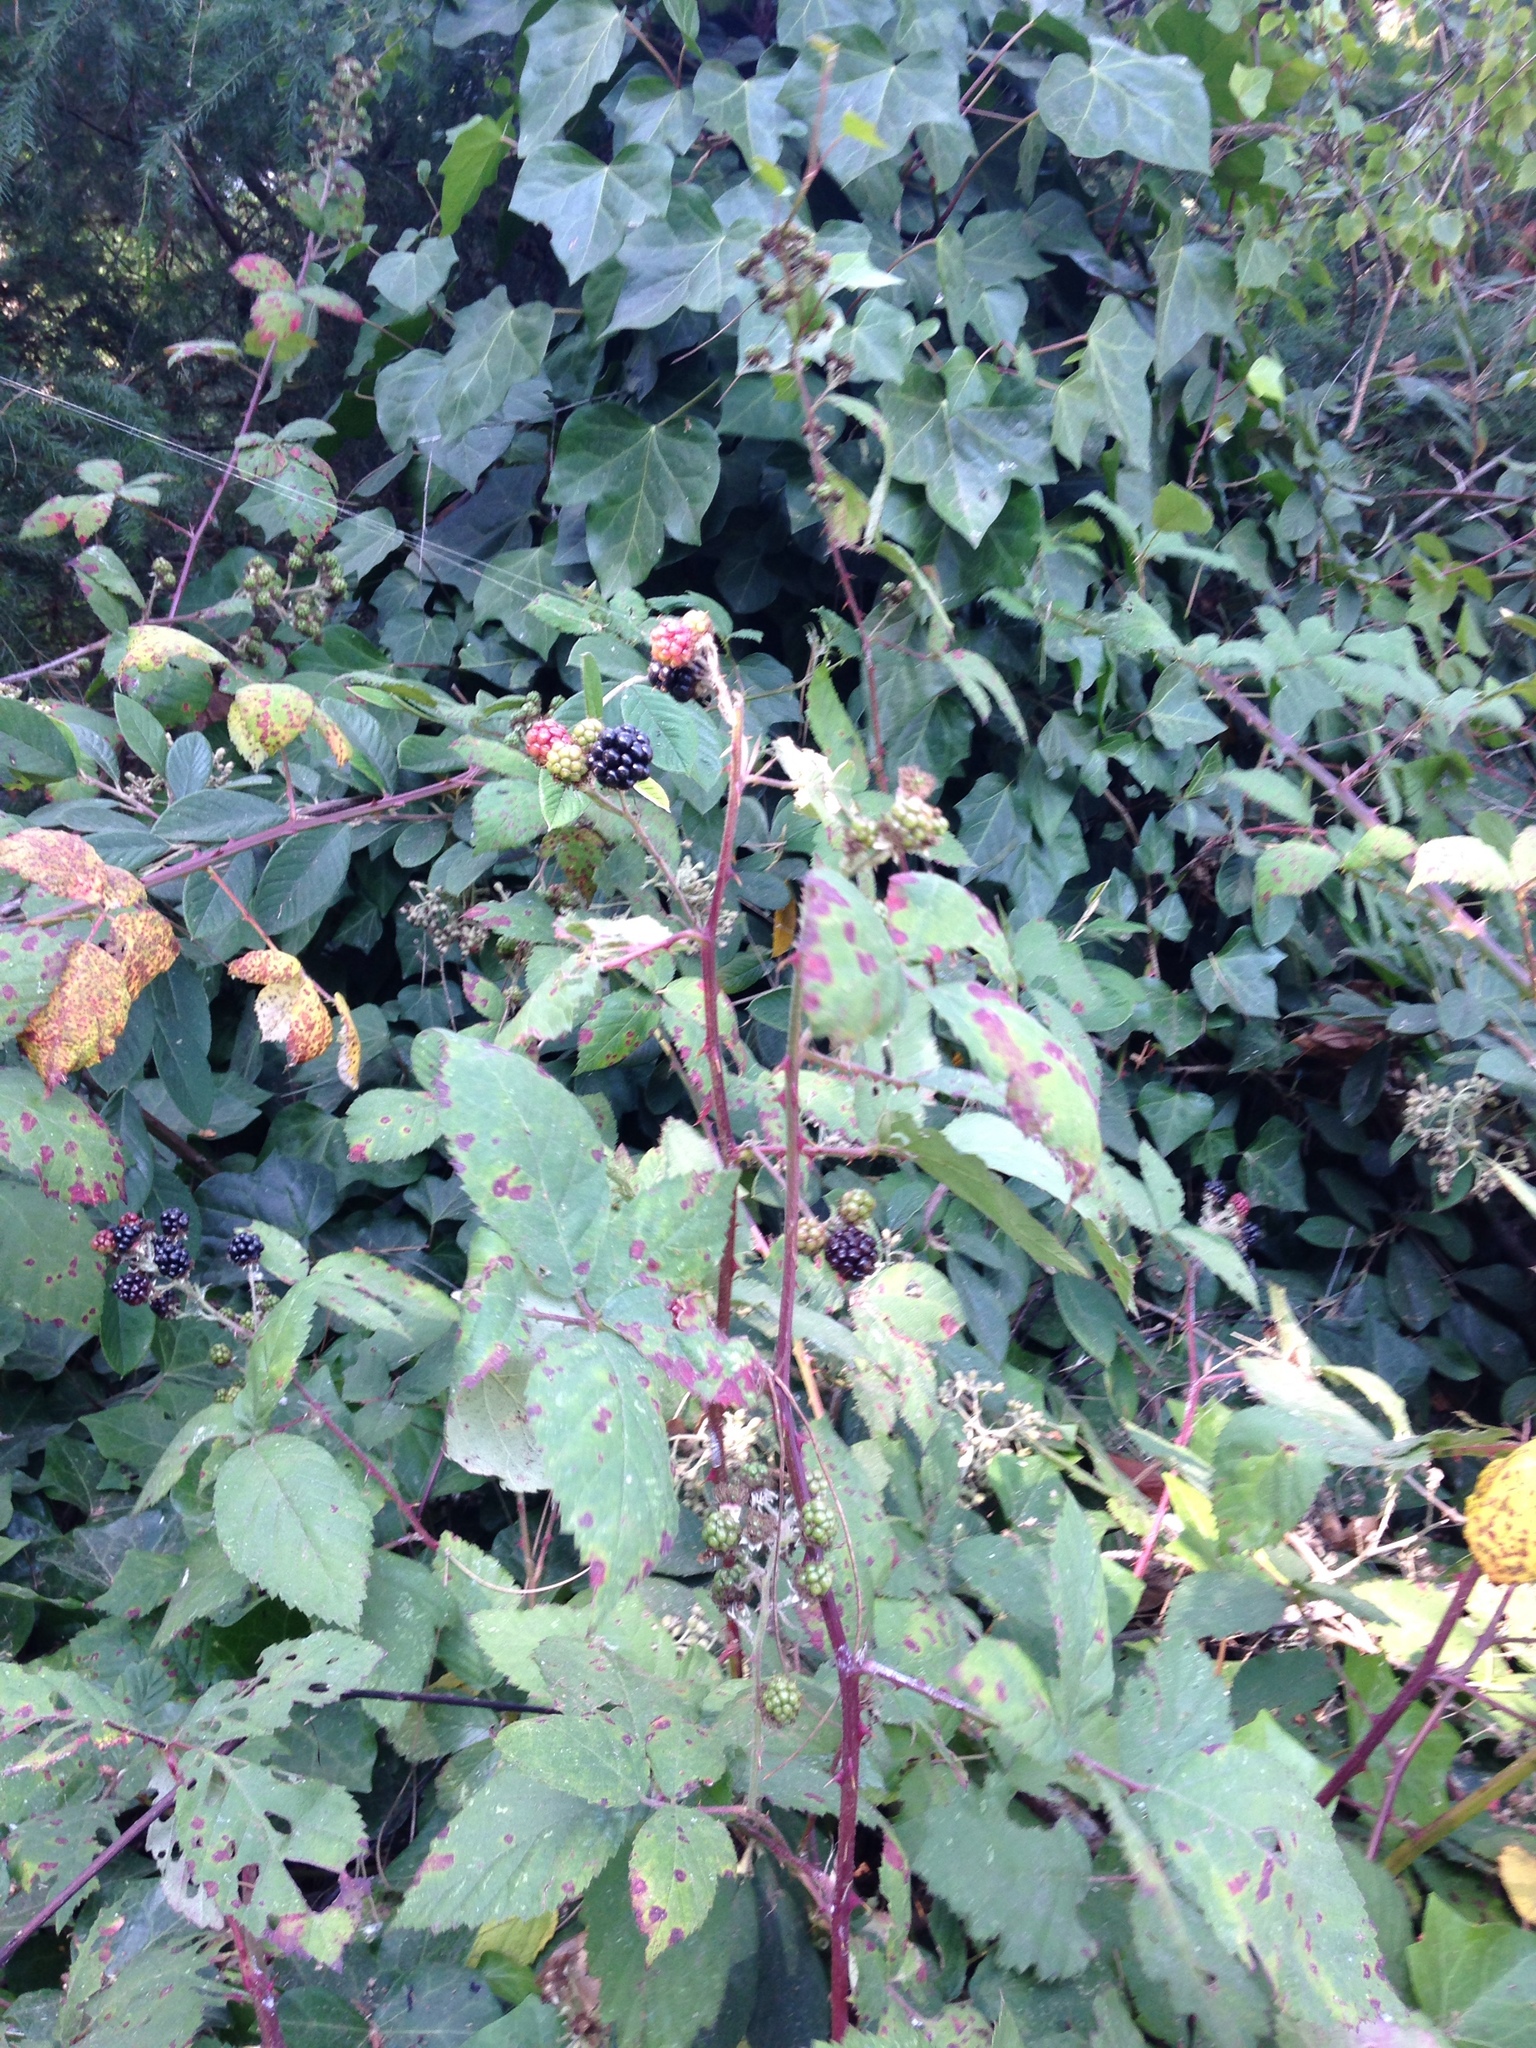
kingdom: Plantae
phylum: Tracheophyta
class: Magnoliopsida
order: Rosales
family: Rosaceae
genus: Rubus
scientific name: Rubus armeniacus
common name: Himalayan blackberry
